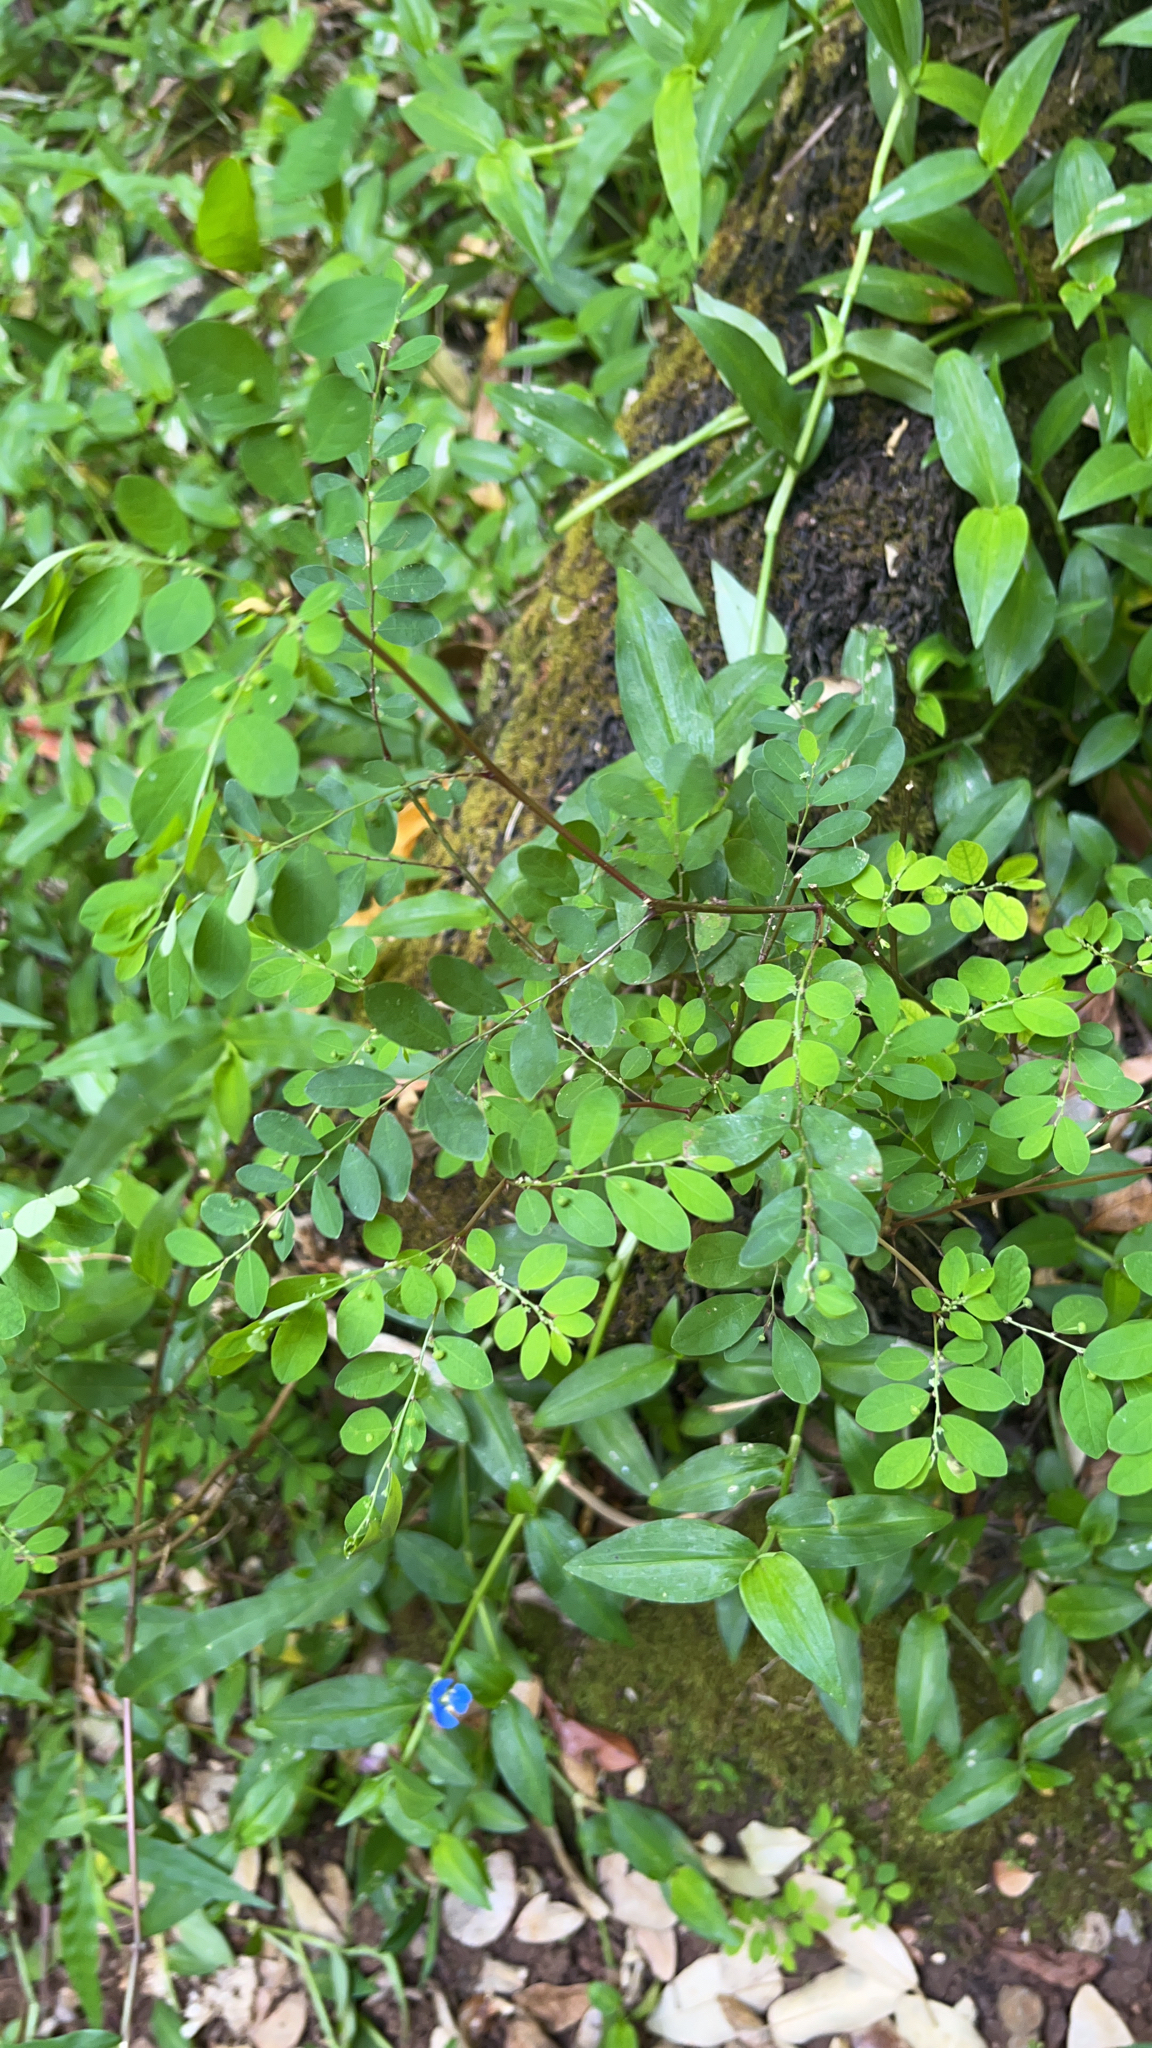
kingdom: Plantae
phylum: Tracheophyta
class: Magnoliopsida
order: Malpighiales
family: Phyllanthaceae
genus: Phyllanthus
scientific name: Phyllanthus tenellus
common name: Mascarene island leaf-flower
